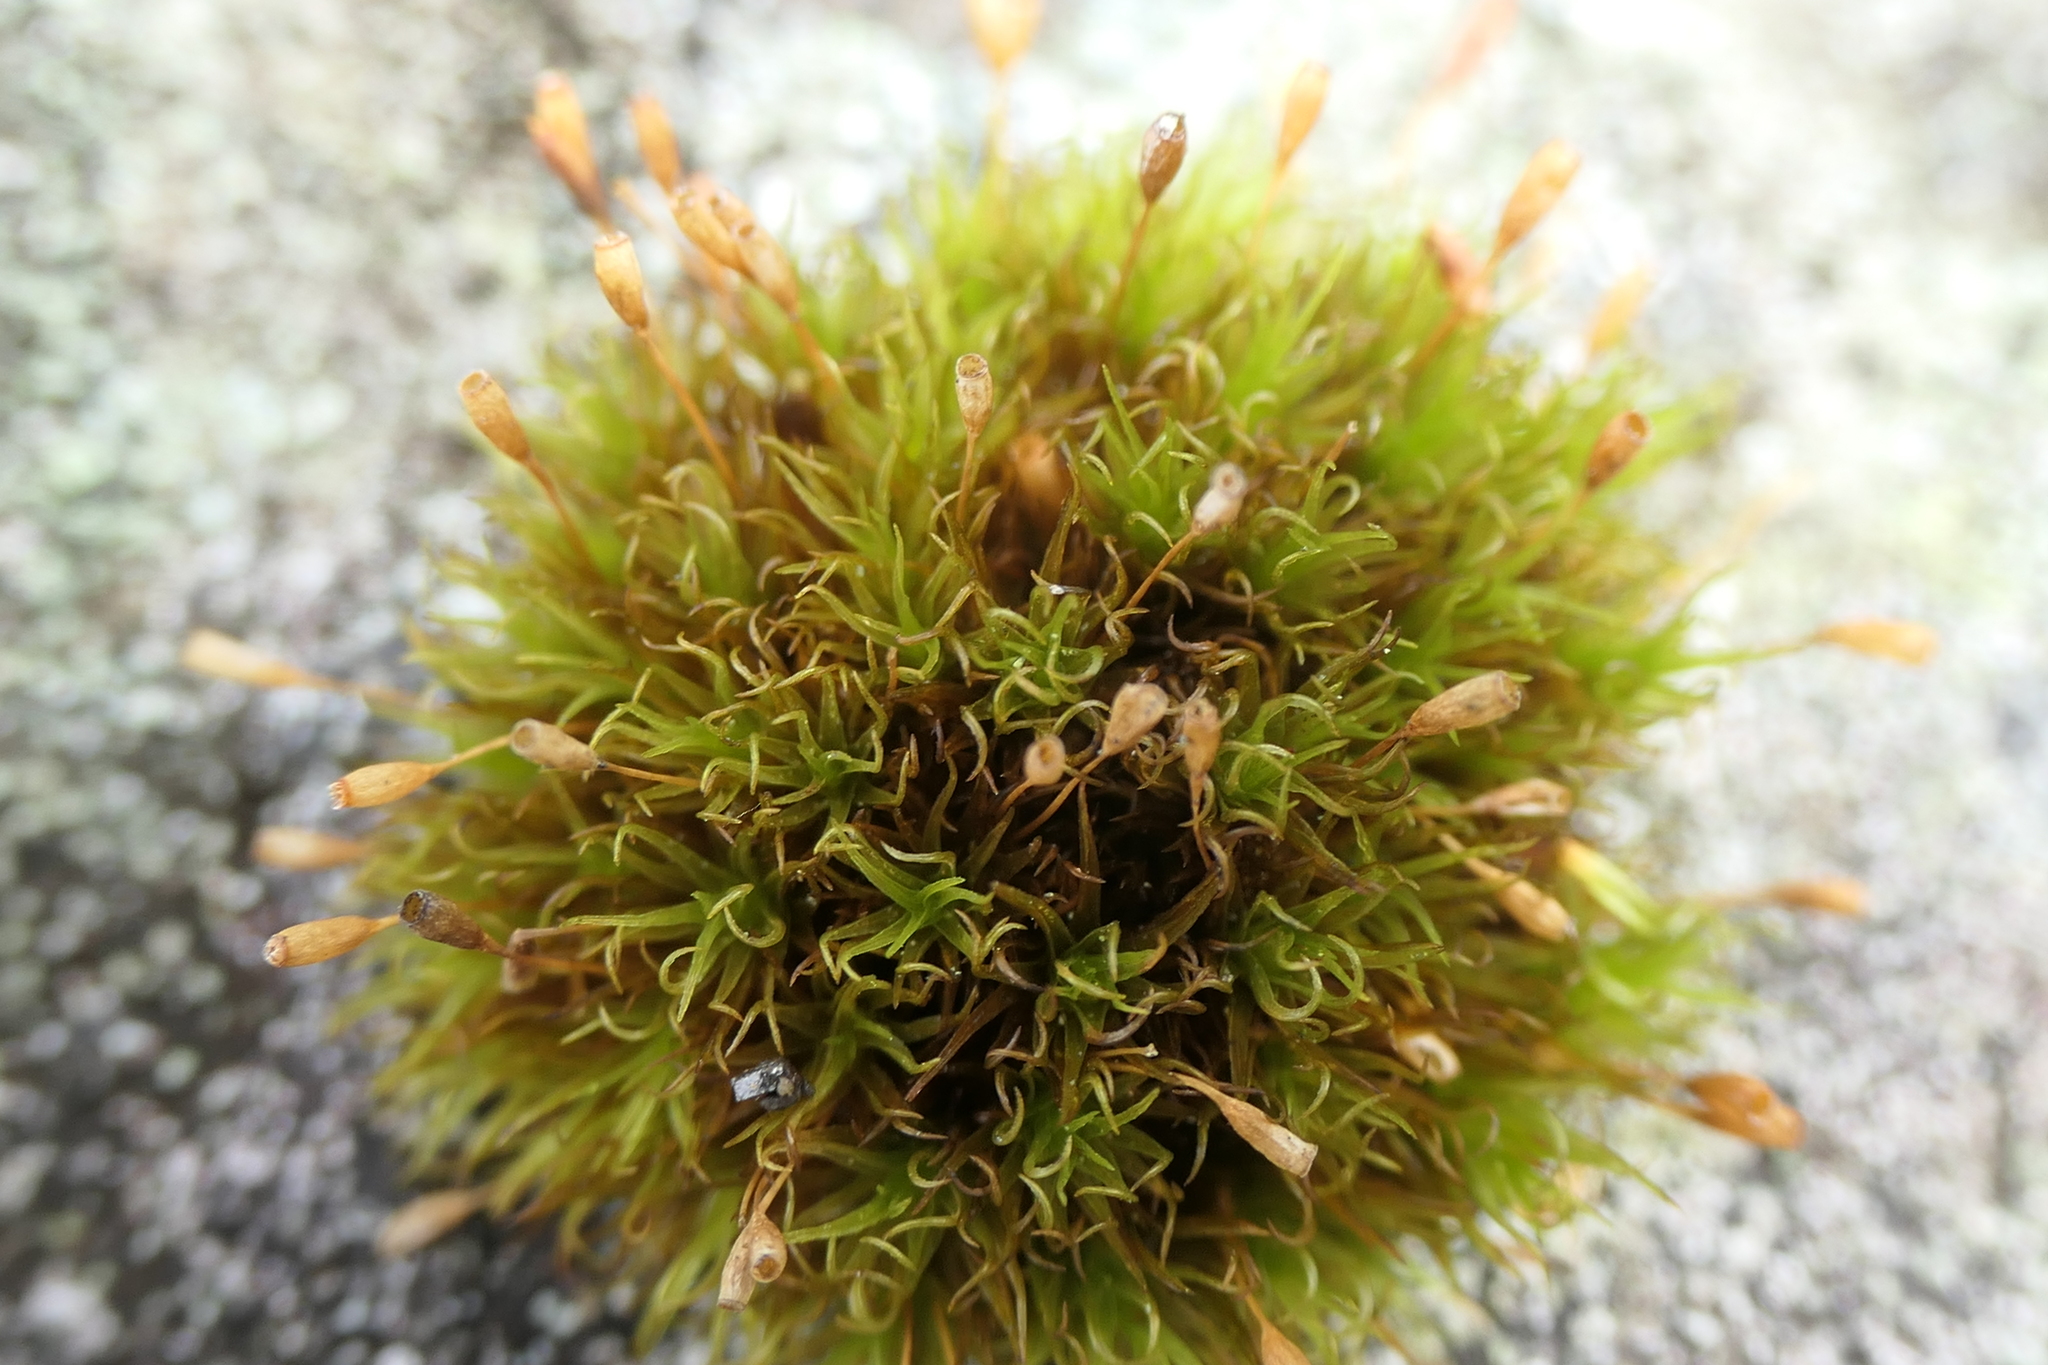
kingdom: Plantae
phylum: Bryophyta
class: Bryopsida
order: Grimmiales
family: Ptychomitriaceae
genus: Ptychomitrium
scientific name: Ptychomitrium polyphyllum
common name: Greater pincushion
